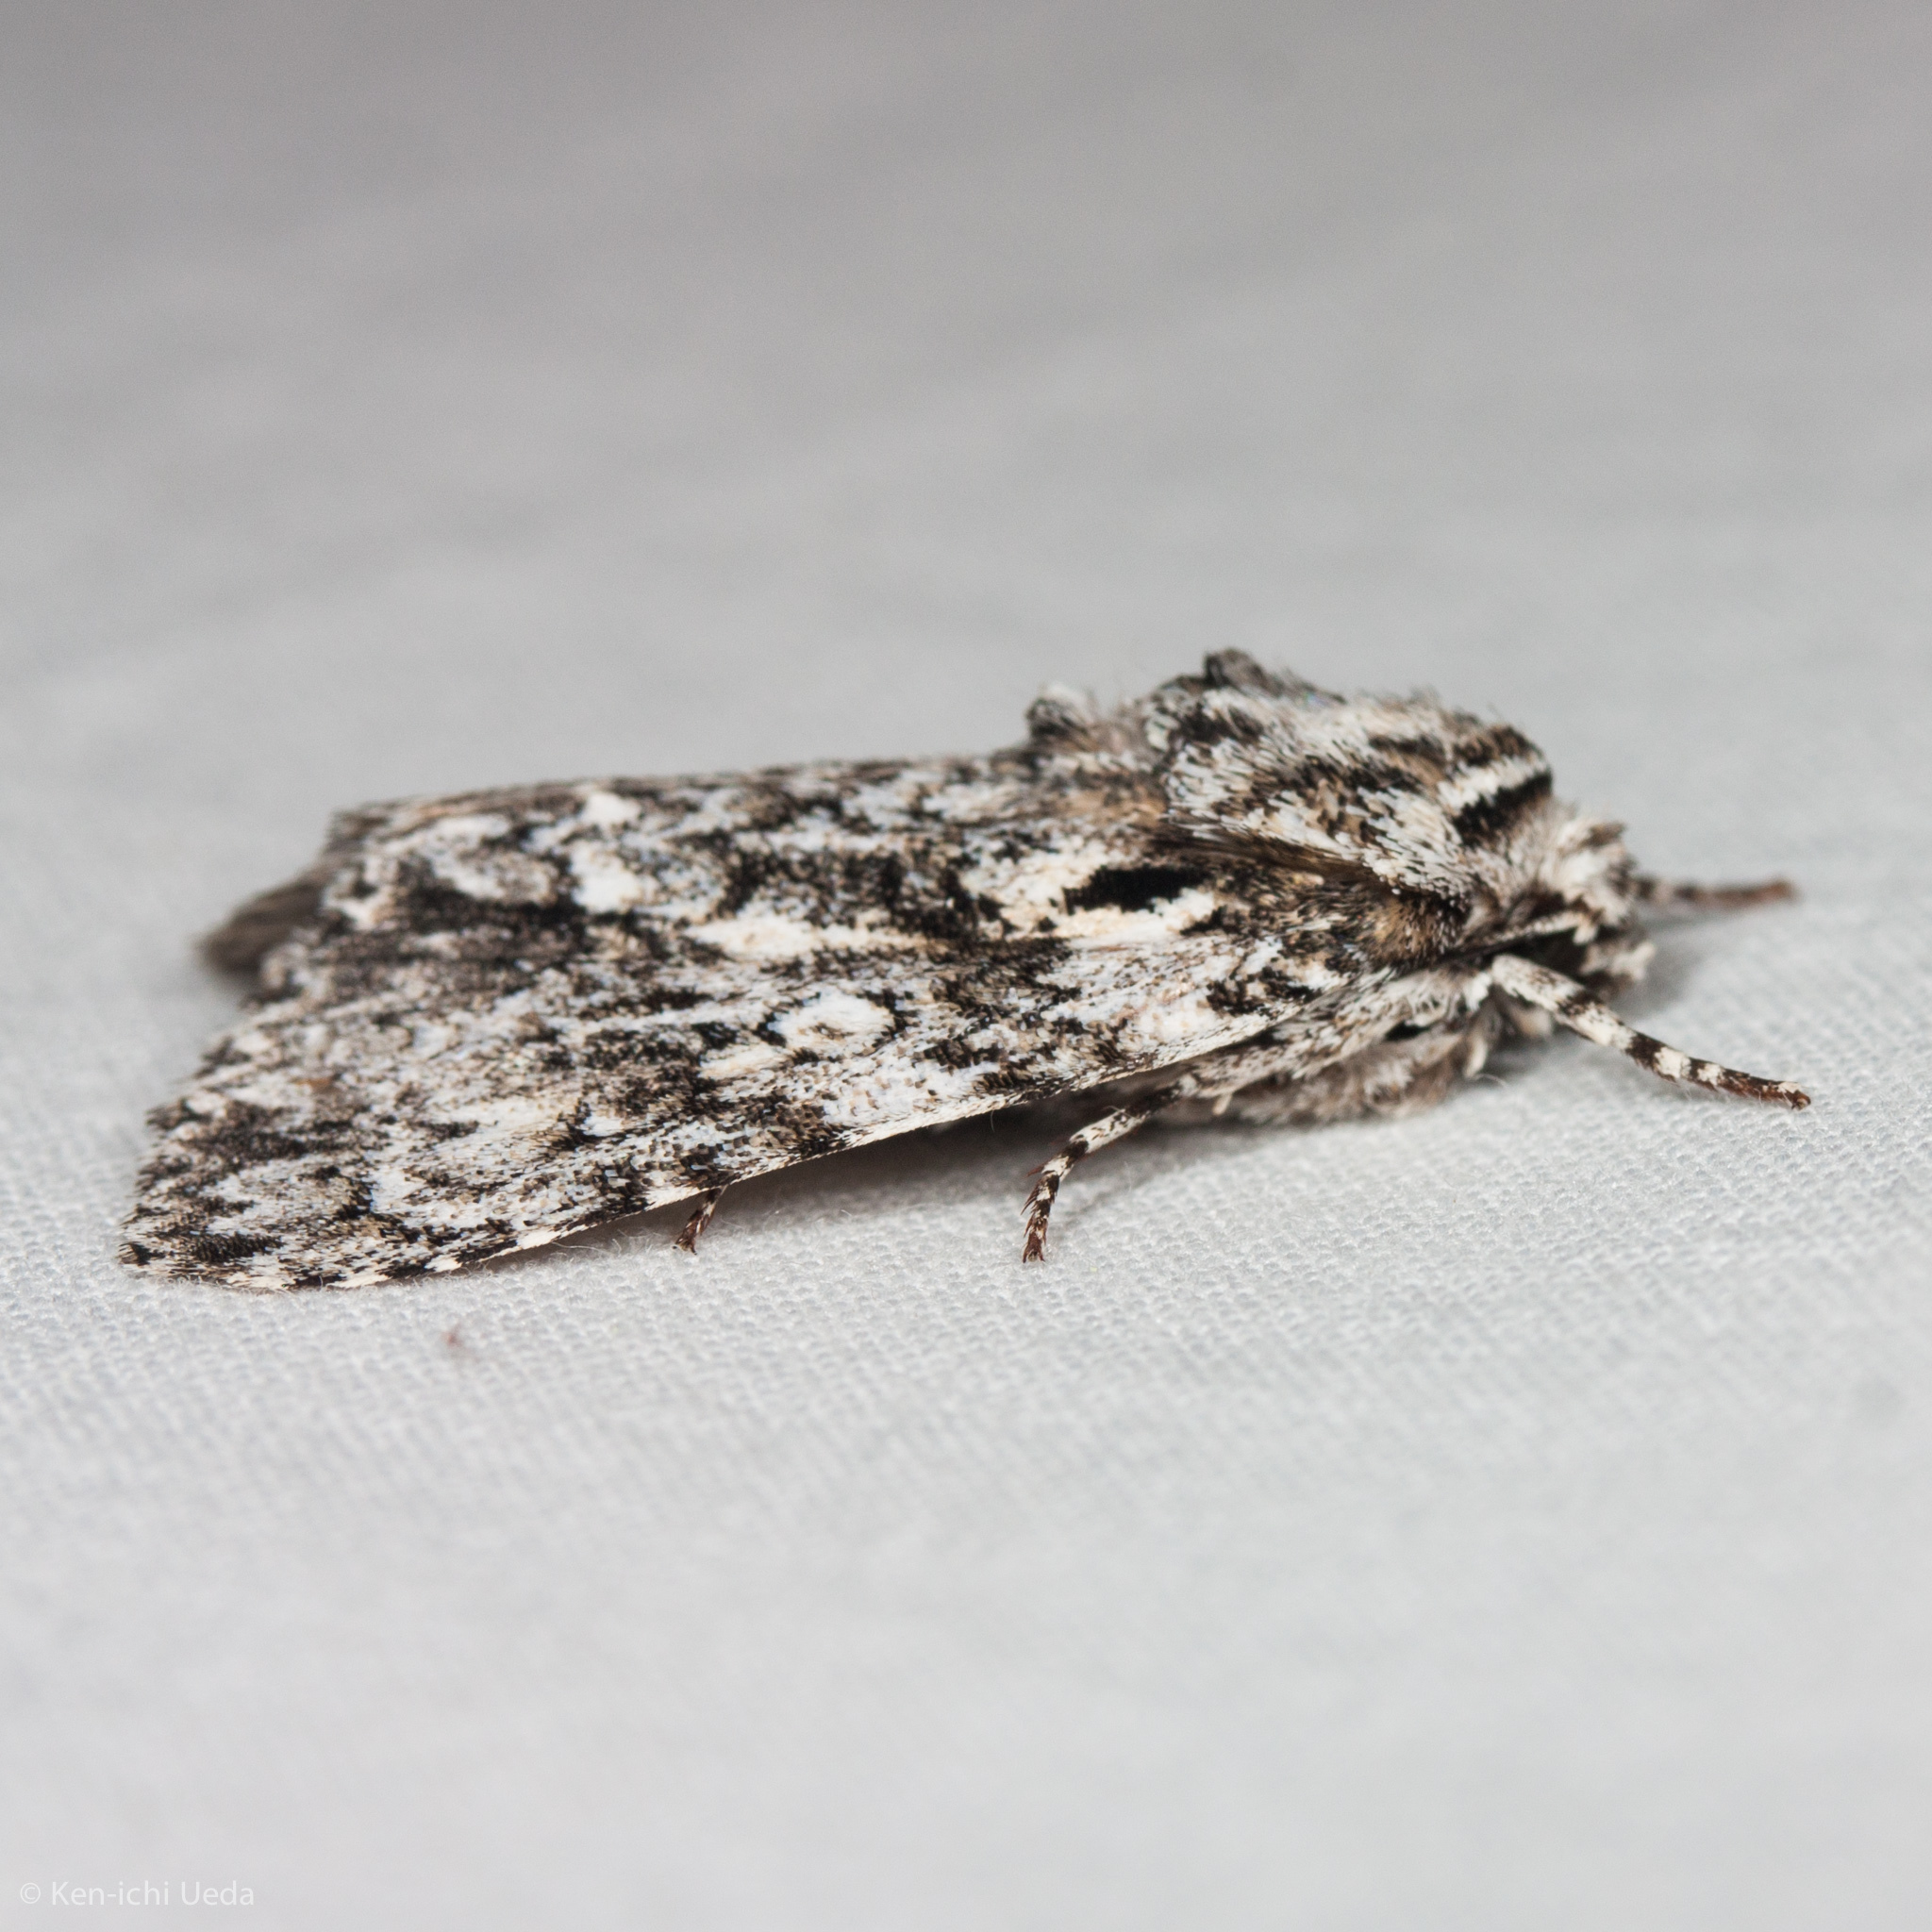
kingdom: Animalia
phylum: Arthropoda
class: Insecta
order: Lepidoptera
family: Noctuidae
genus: Acronicta
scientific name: Acronicta marmorata
